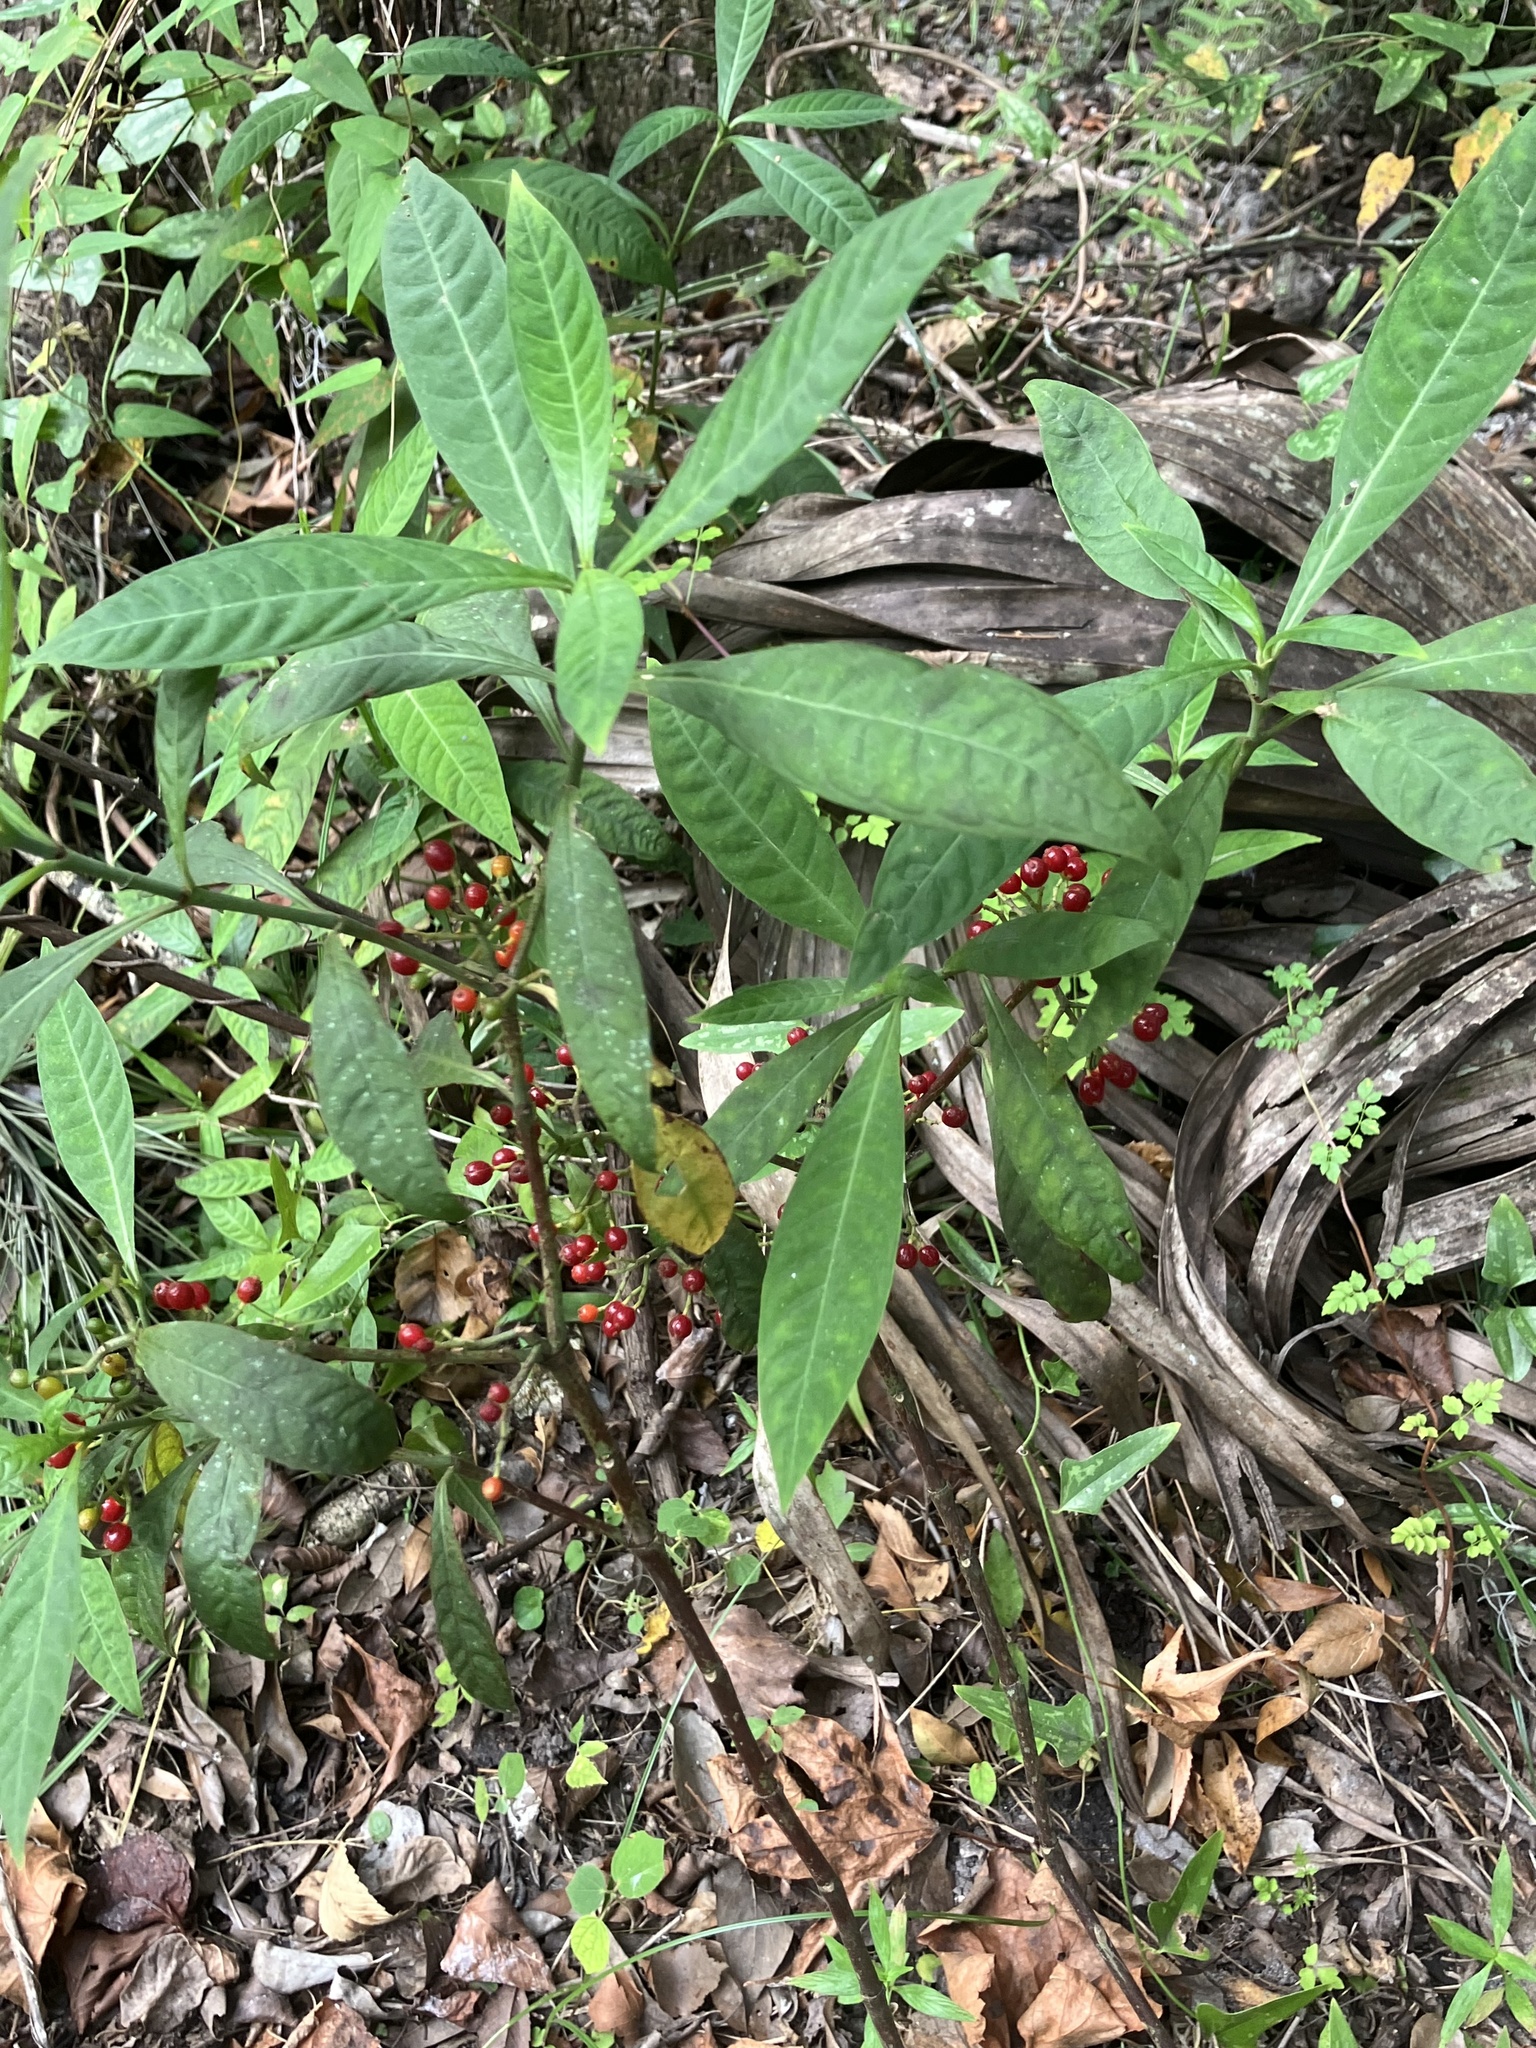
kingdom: Plantae
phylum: Tracheophyta
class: Magnoliopsida
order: Gentianales
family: Rubiaceae
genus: Psychotria
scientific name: Psychotria tenuifolia
